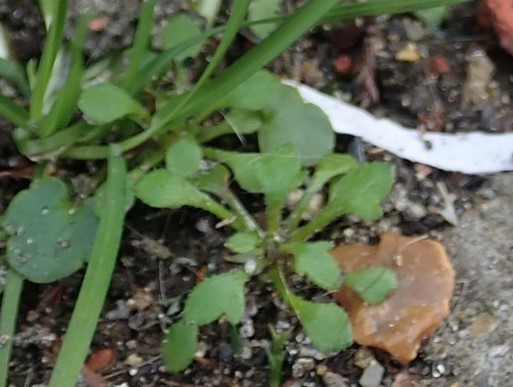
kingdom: Plantae
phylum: Tracheophyta
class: Magnoliopsida
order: Saxifragales
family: Saxifragaceae
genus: Saxifraga
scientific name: Saxifraga tridactylites
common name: Rue-leaved saxifrage
